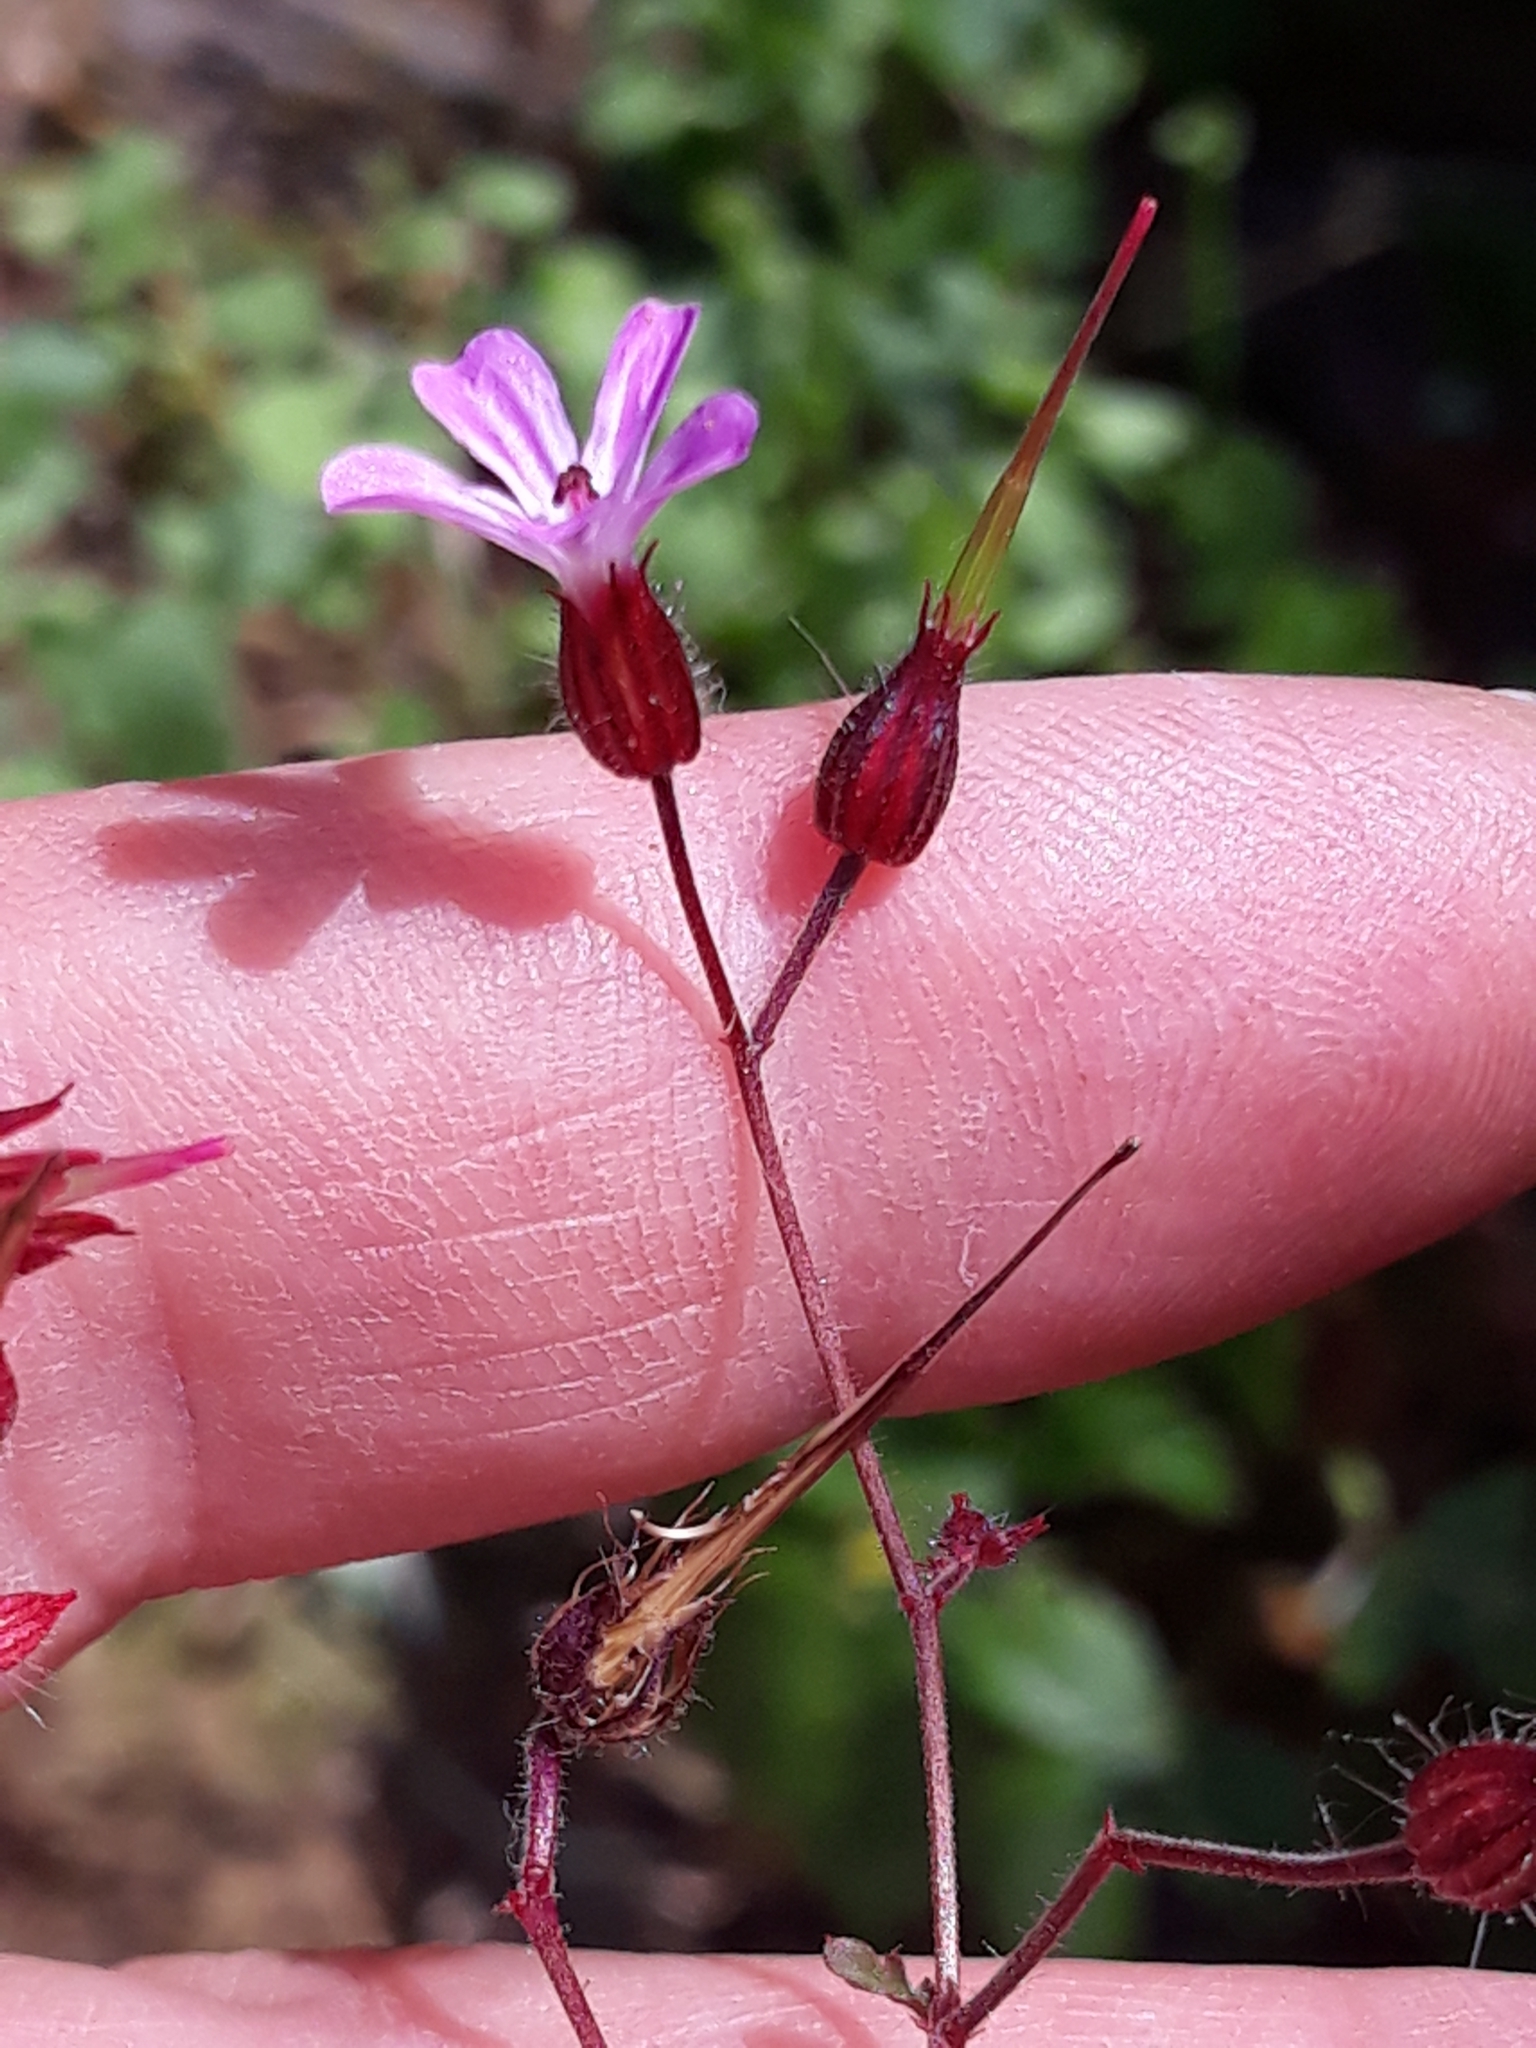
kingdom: Plantae
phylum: Tracheophyta
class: Magnoliopsida
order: Geraniales
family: Geraniaceae
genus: Geranium
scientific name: Geranium robertianum
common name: Herb-robert
